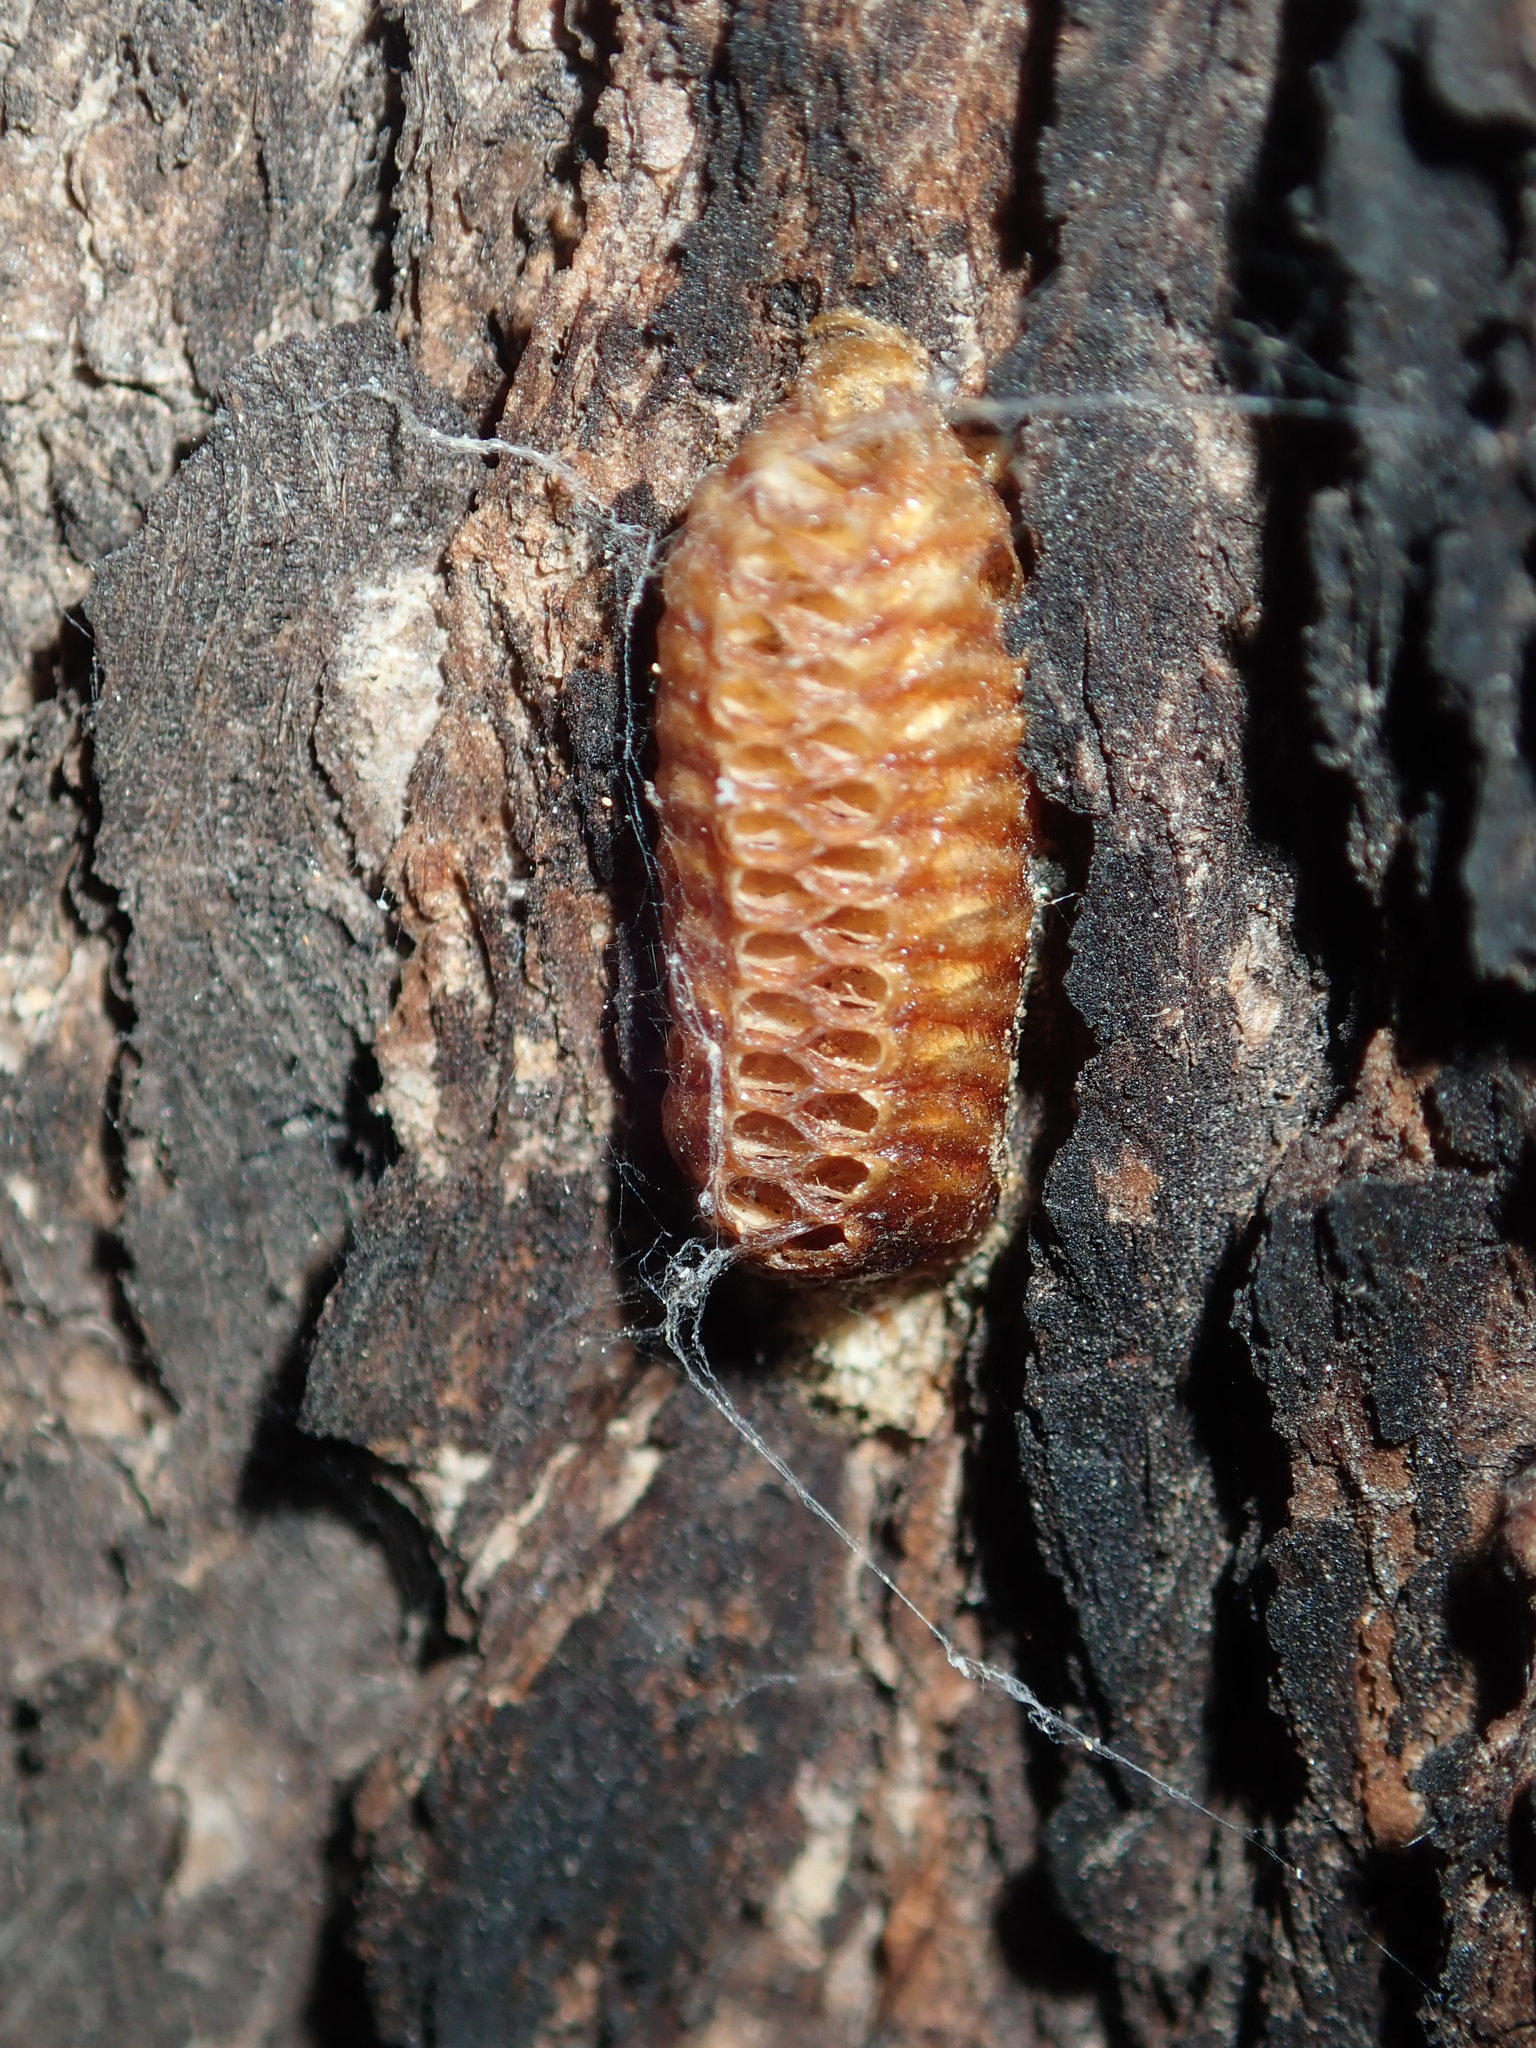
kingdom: Animalia
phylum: Arthropoda
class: Insecta
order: Mantodea
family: Mantidae
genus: Orthodera
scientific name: Orthodera ministralis
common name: Mantis
